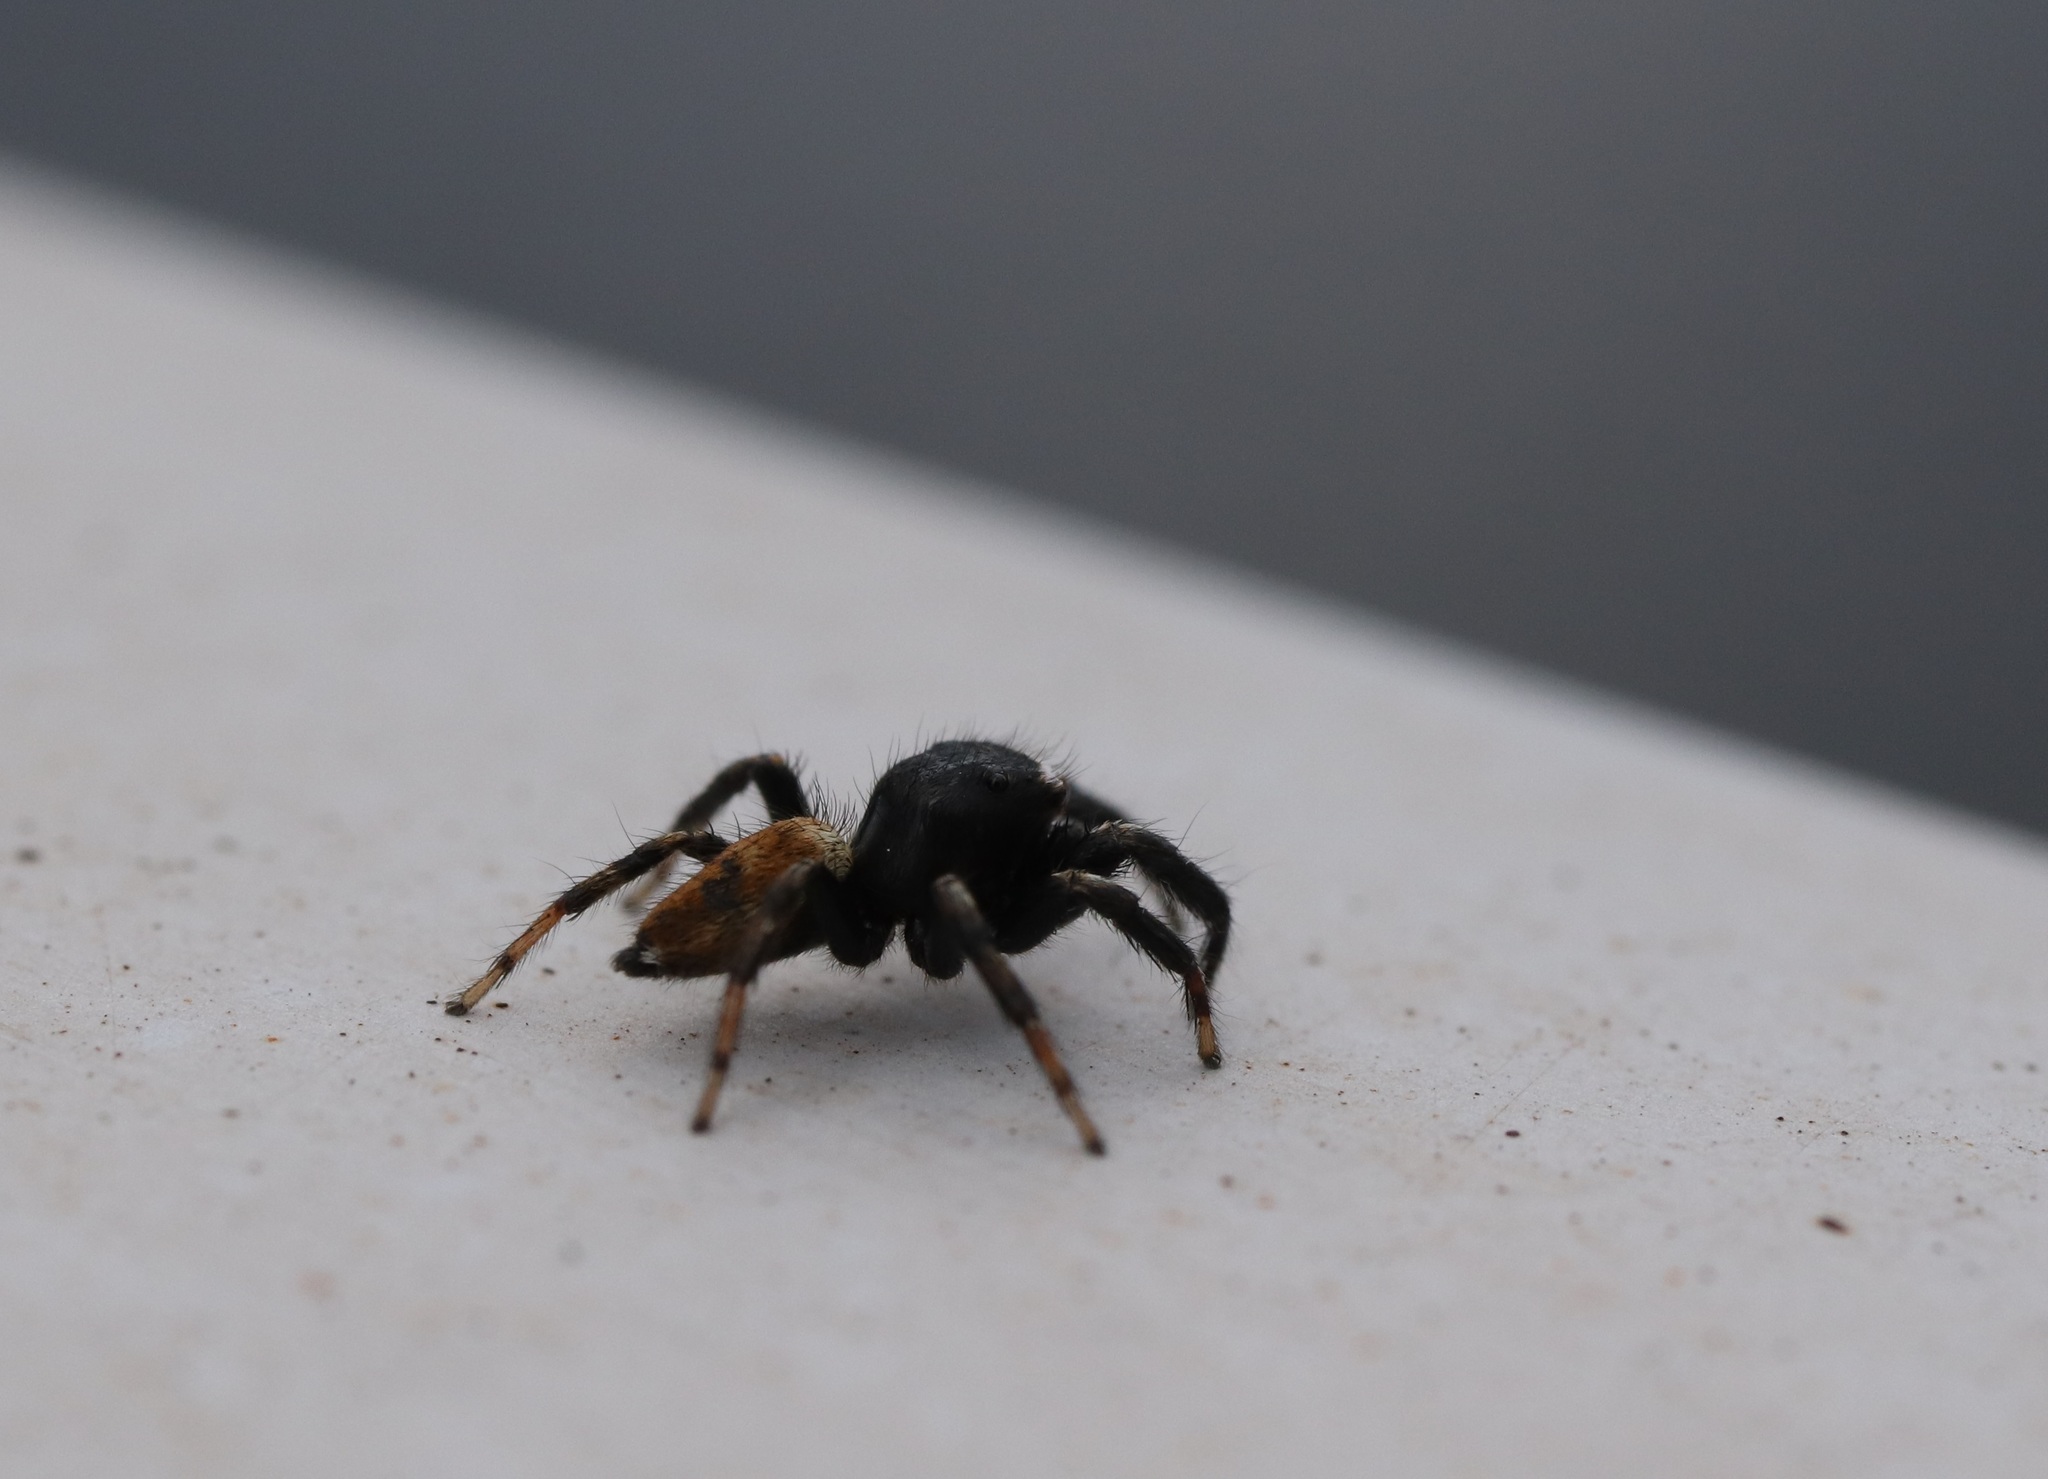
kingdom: Animalia
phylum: Arthropoda
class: Arachnida
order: Araneae
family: Salticidae
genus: Evarcha
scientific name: Evarcha albaria
